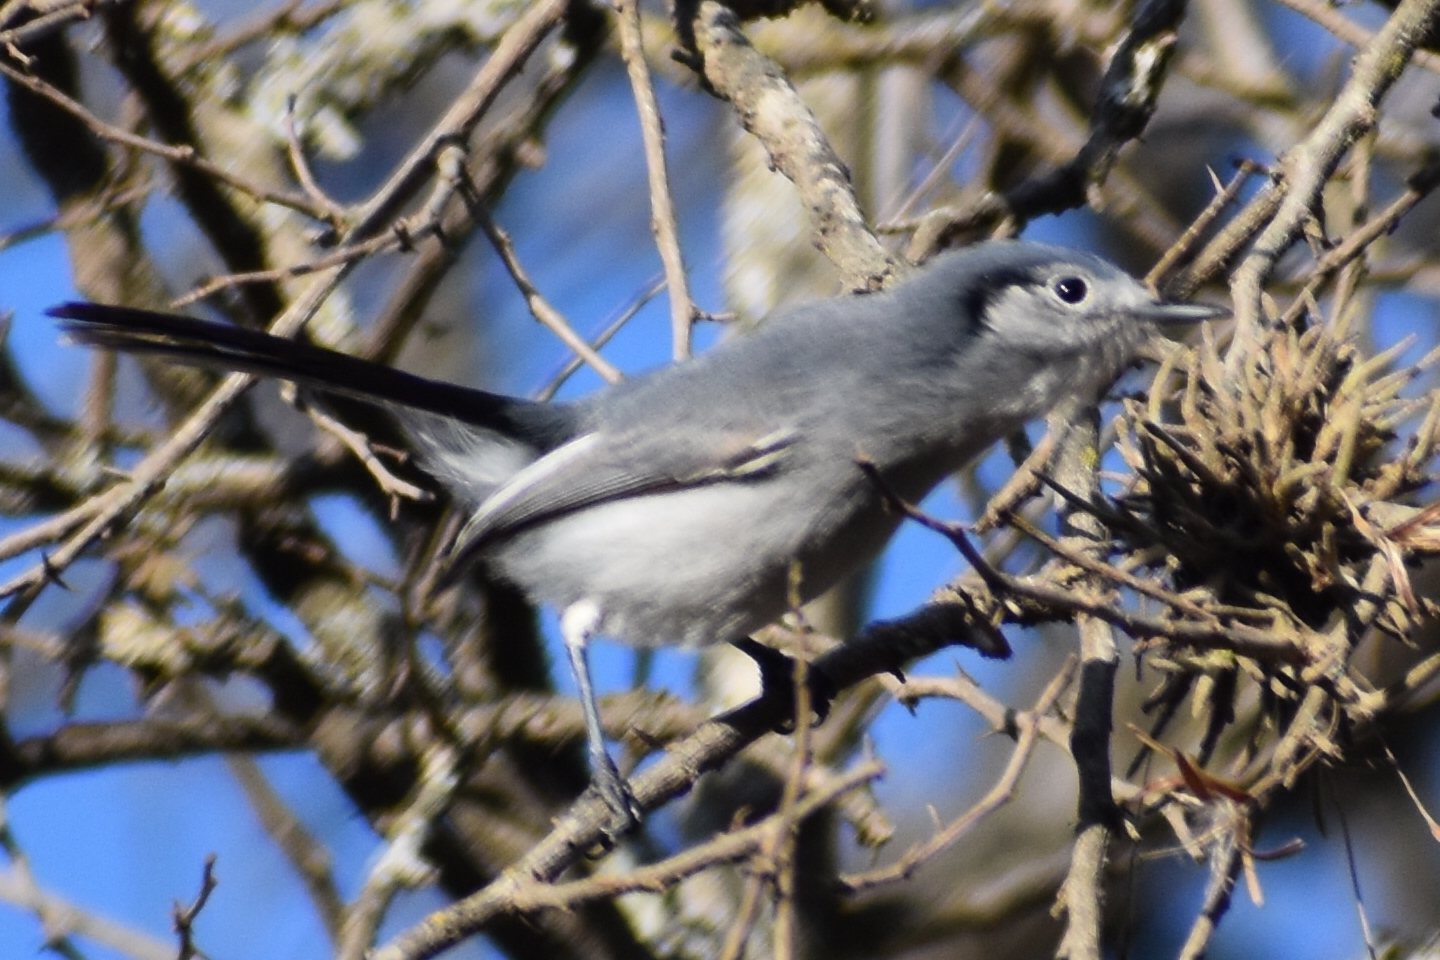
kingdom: Animalia
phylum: Chordata
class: Aves
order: Passeriformes
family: Polioptilidae
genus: Polioptila
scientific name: Polioptila dumicola
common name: Masked gnatcatcher
